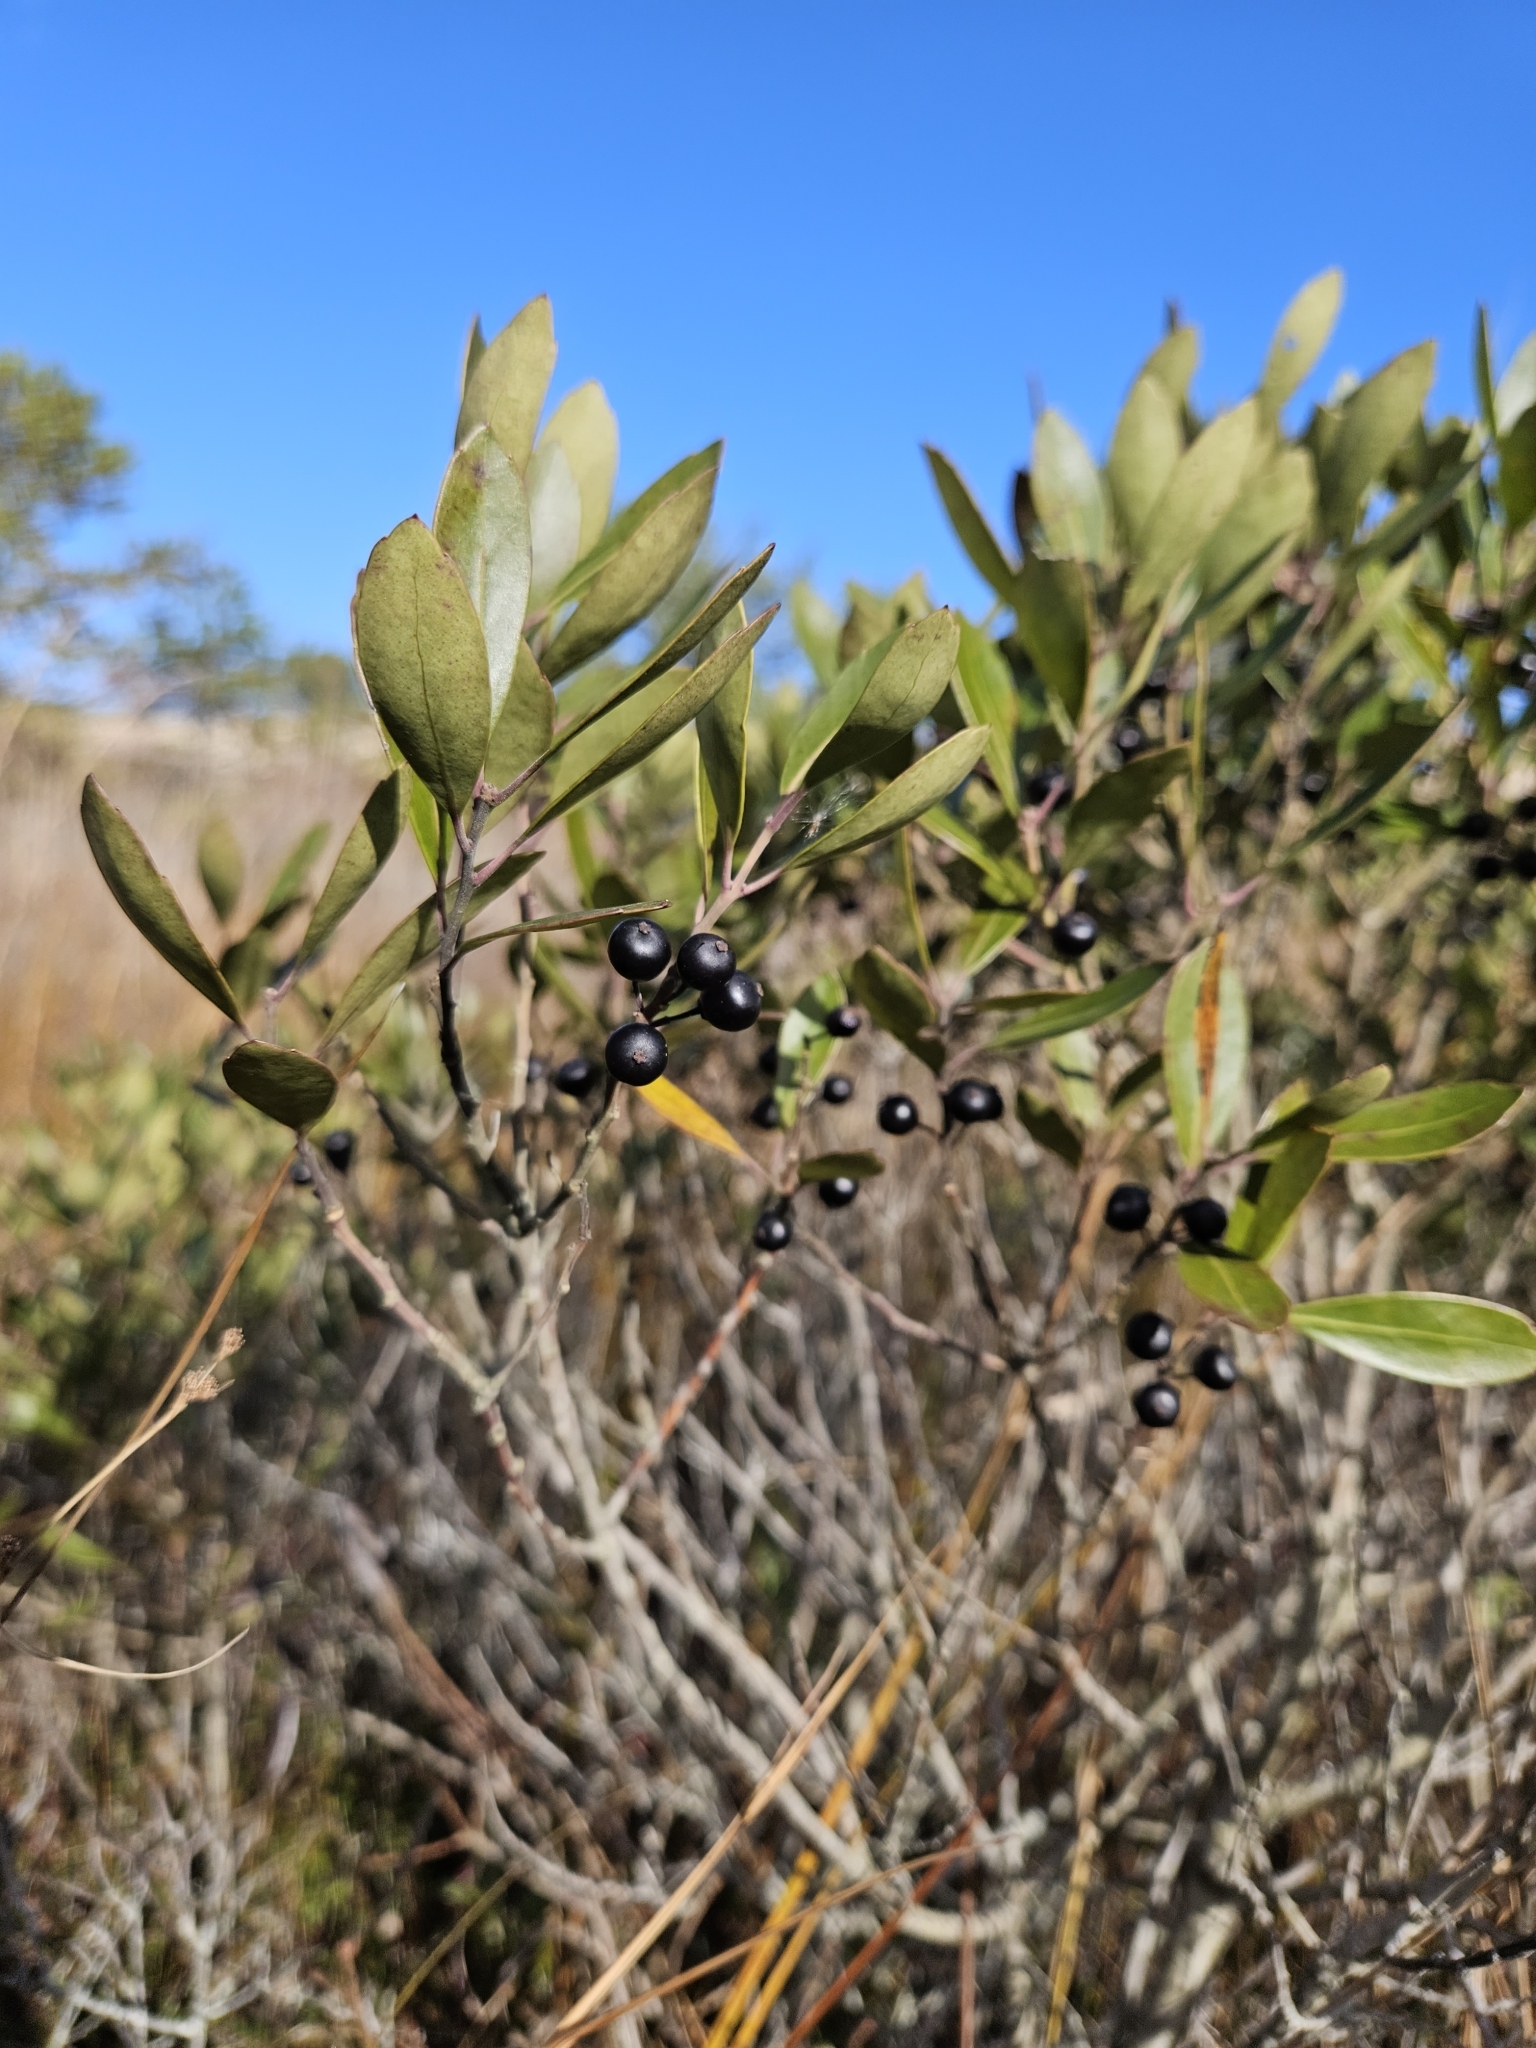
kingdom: Plantae
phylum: Tracheophyta
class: Magnoliopsida
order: Aquifoliales
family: Aquifoliaceae
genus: Ilex
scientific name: Ilex glabra
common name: Bitter gallberry
